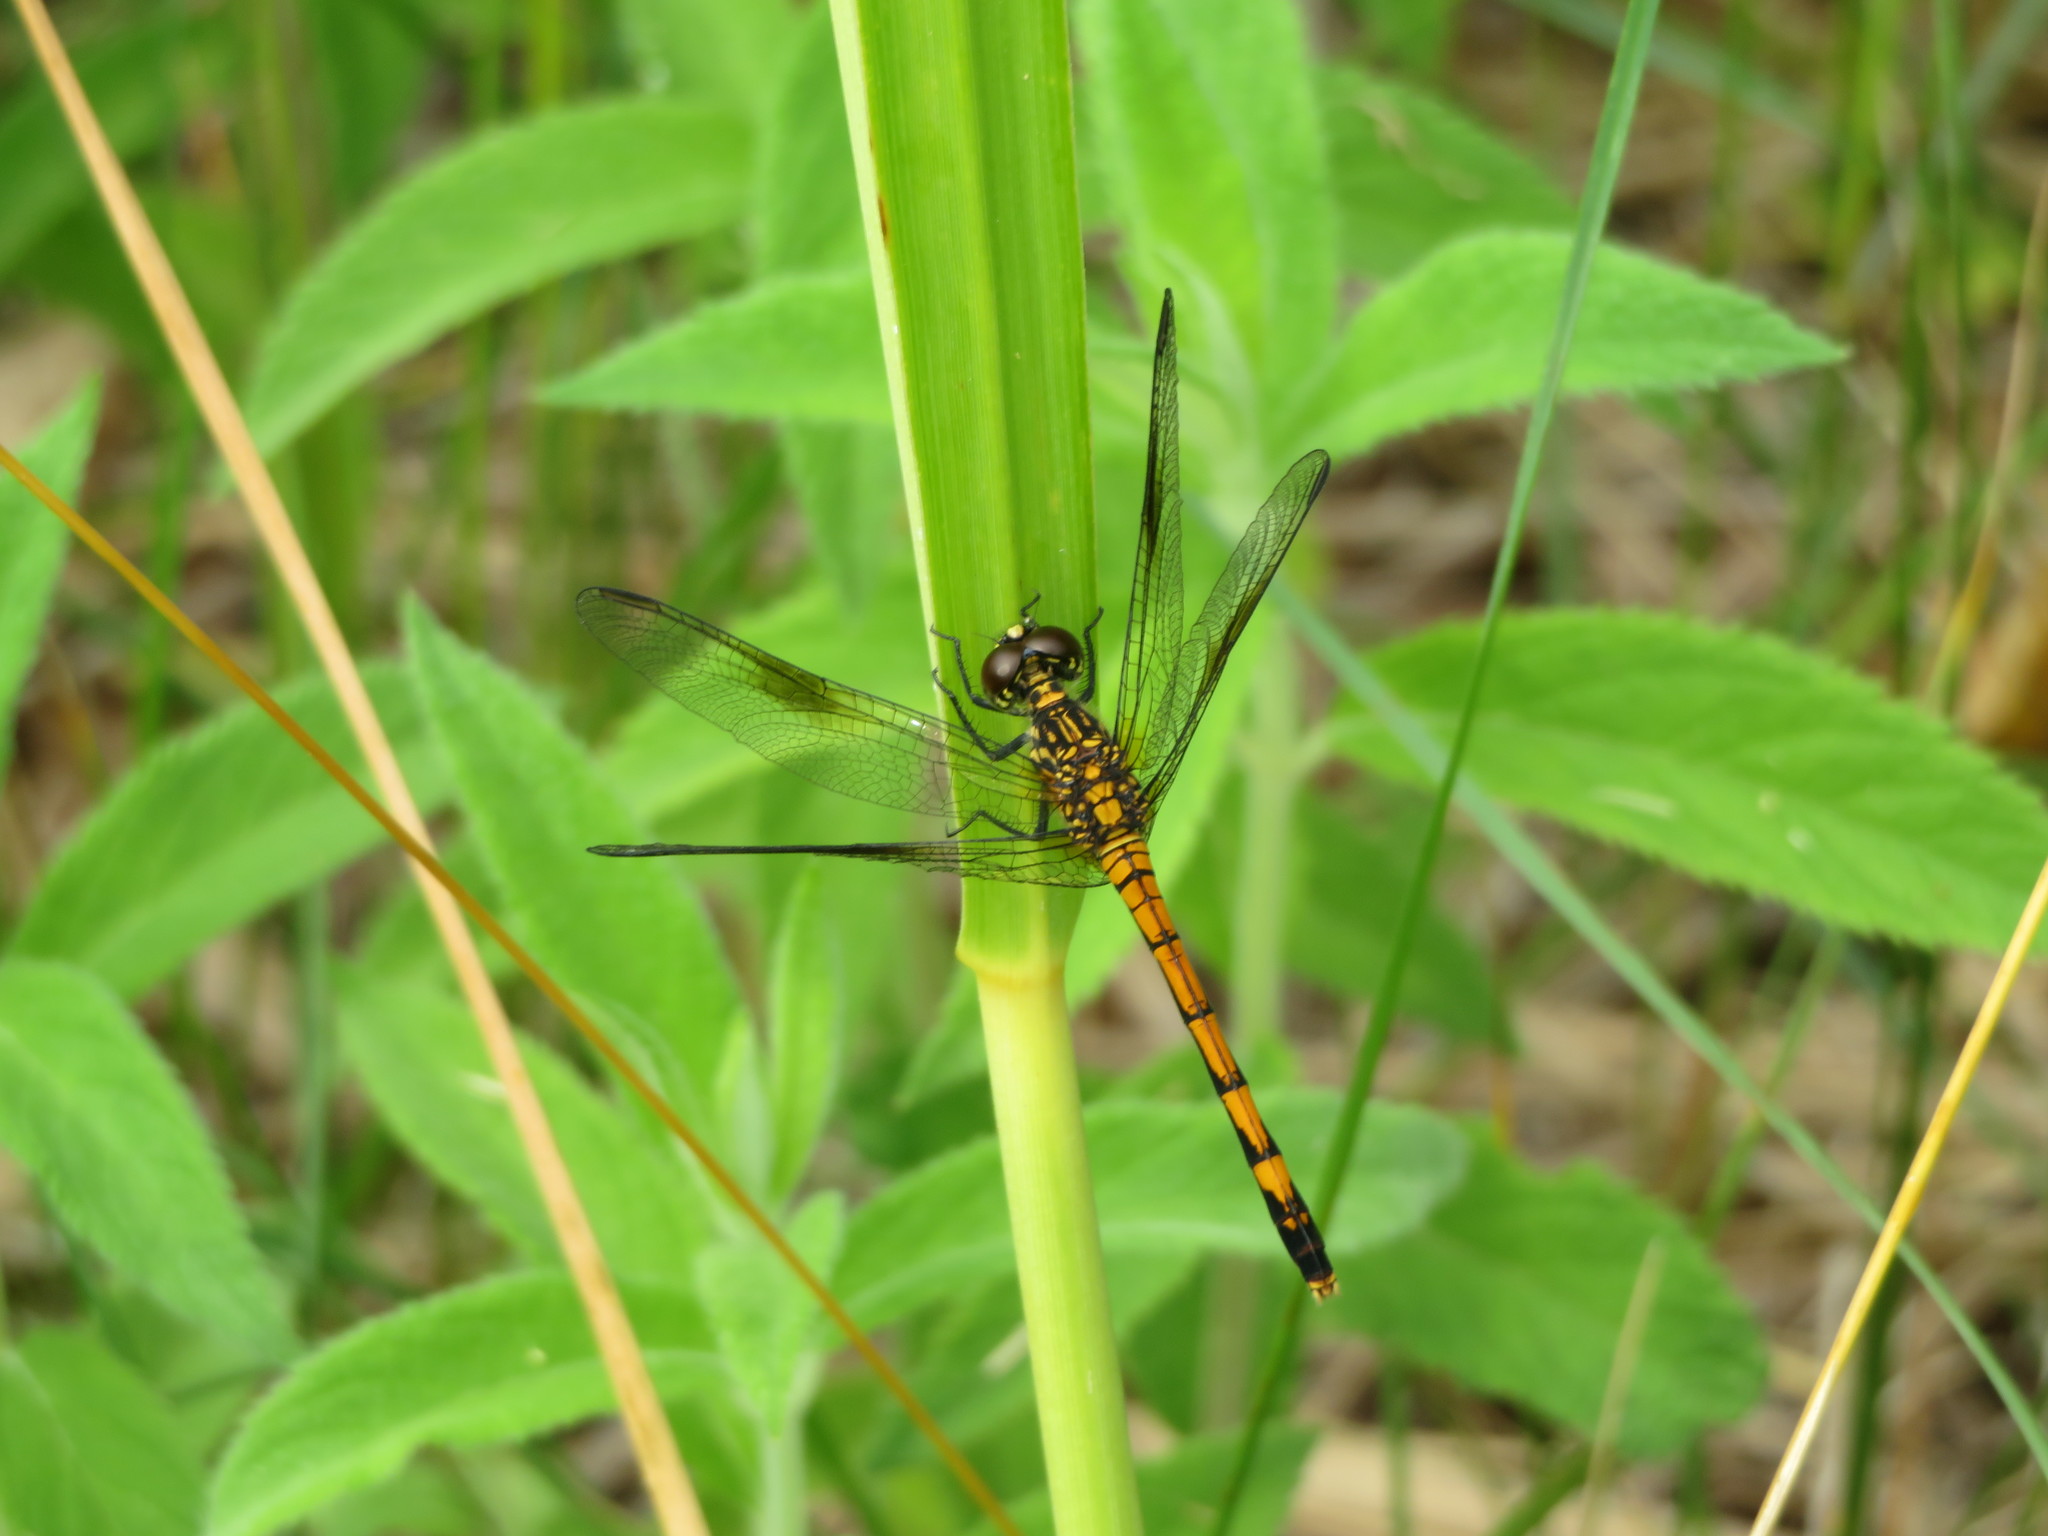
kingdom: Animalia
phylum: Arthropoda
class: Insecta
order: Odonata
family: Libellulidae
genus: Erythrodiplax
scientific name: Erythrodiplax berenice
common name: Seaside dragonlet
